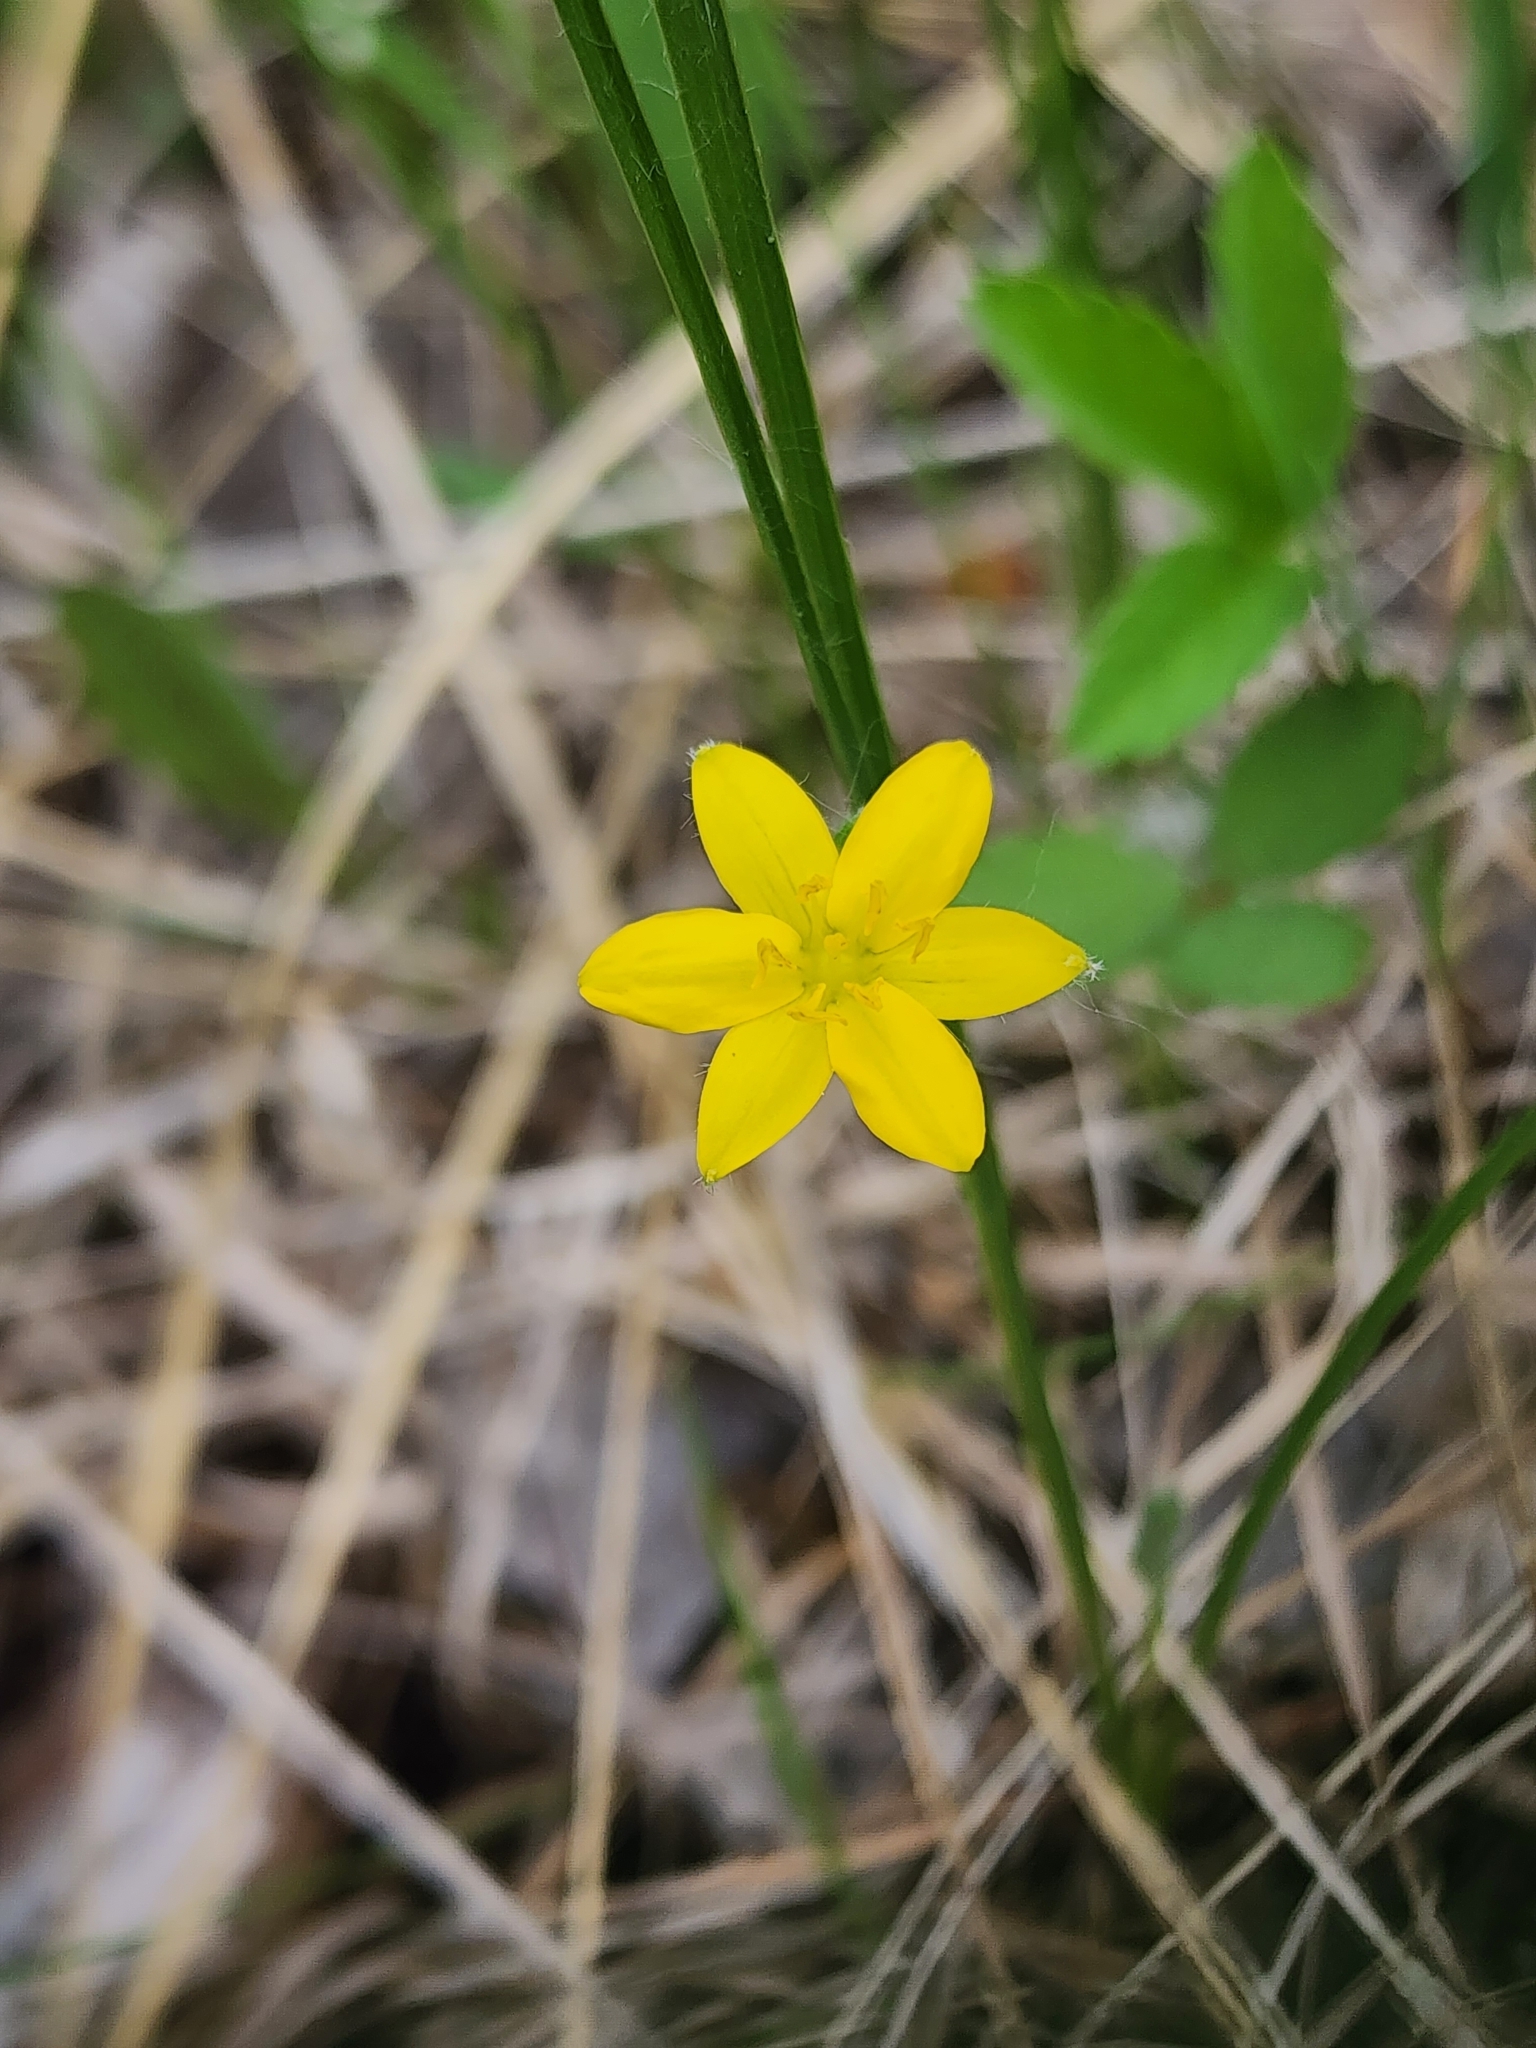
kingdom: Plantae
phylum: Tracheophyta
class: Liliopsida
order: Asparagales
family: Hypoxidaceae
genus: Hypoxis
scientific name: Hypoxis hirsuta
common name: Common goldstar
